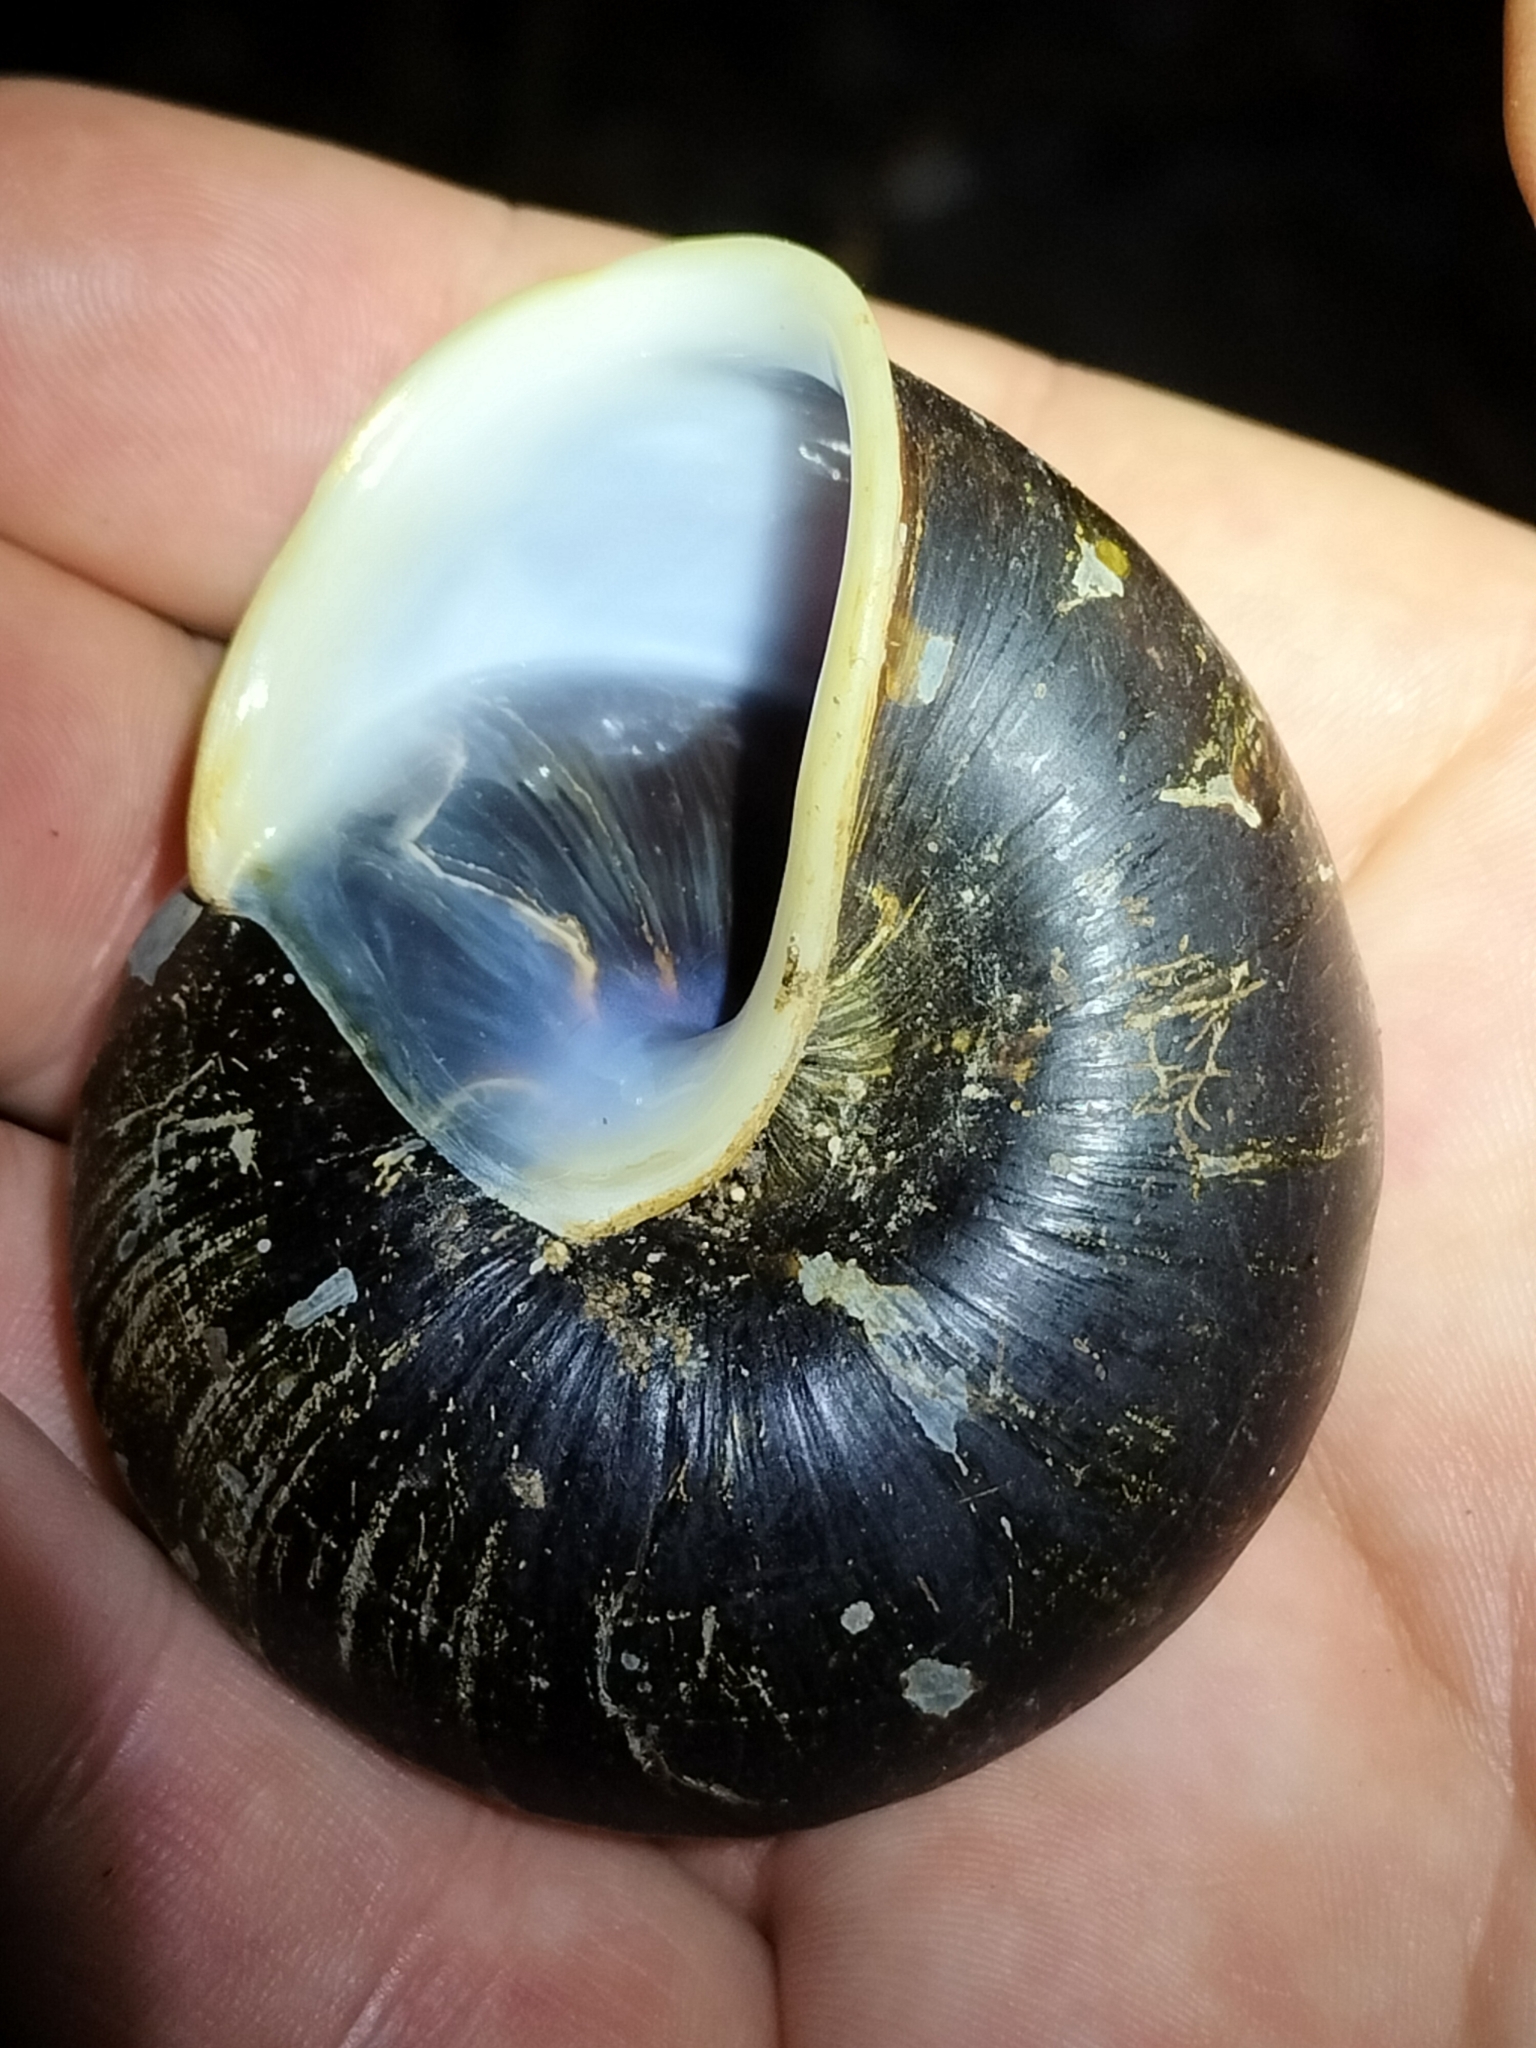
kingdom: Animalia
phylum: Mollusca
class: Gastropoda
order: Stylommatophora
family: Camaenidae
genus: Hadra
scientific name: Hadra webbi
